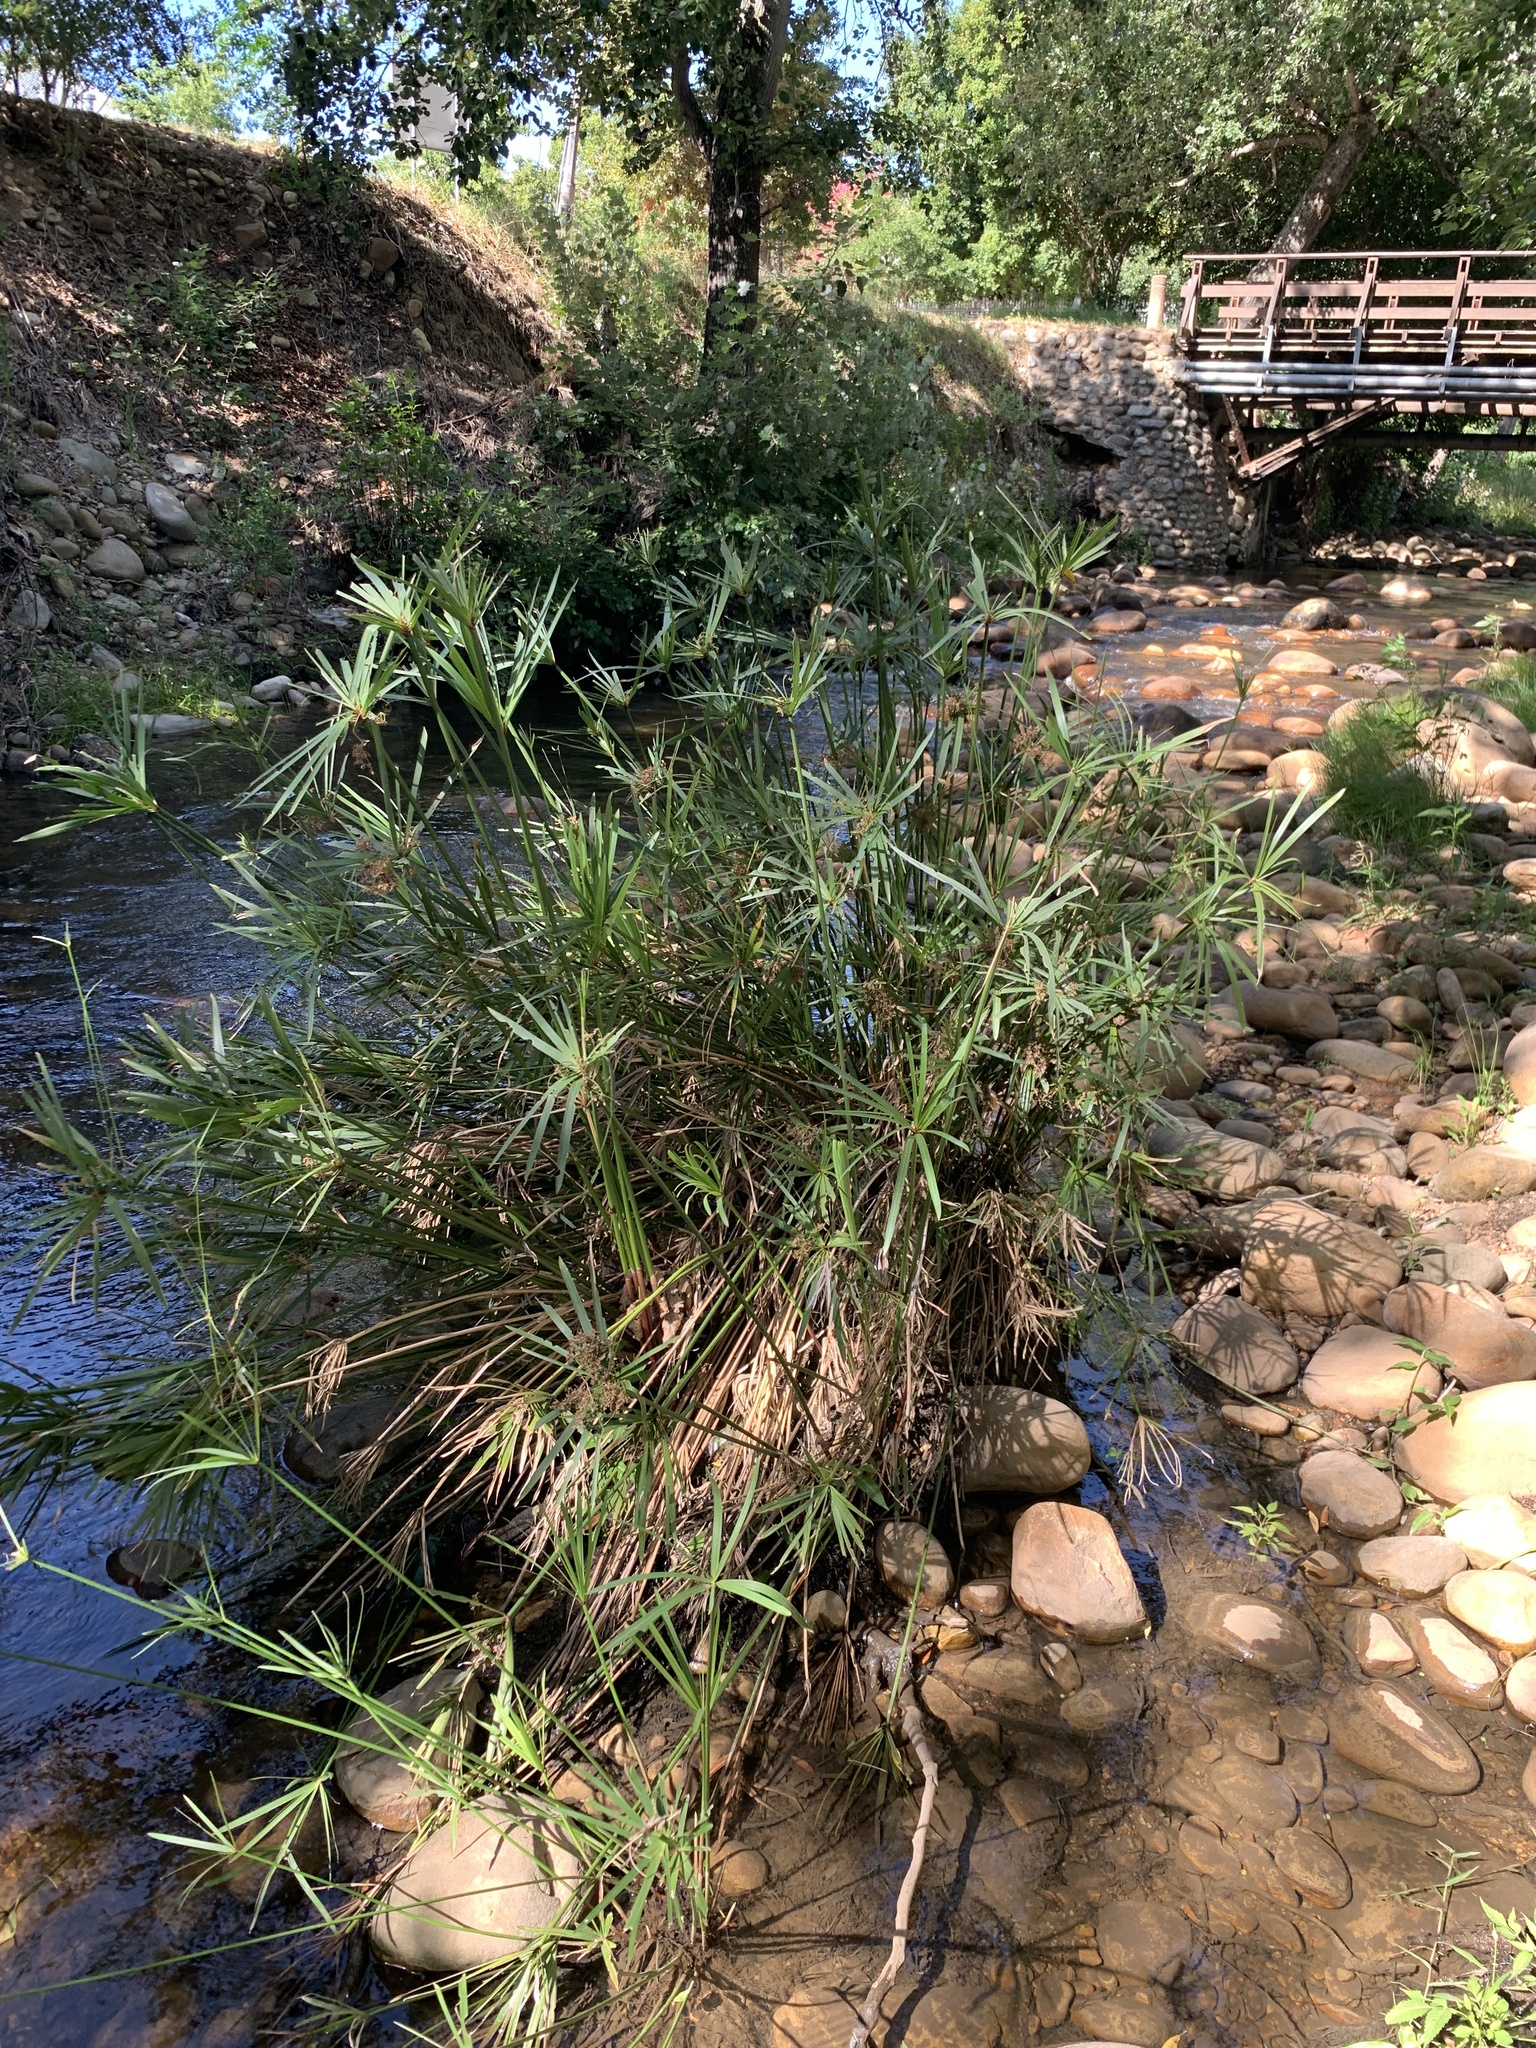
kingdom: Plantae
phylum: Tracheophyta
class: Liliopsida
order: Poales
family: Cyperaceae
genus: Cyperus
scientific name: Cyperus textilis
